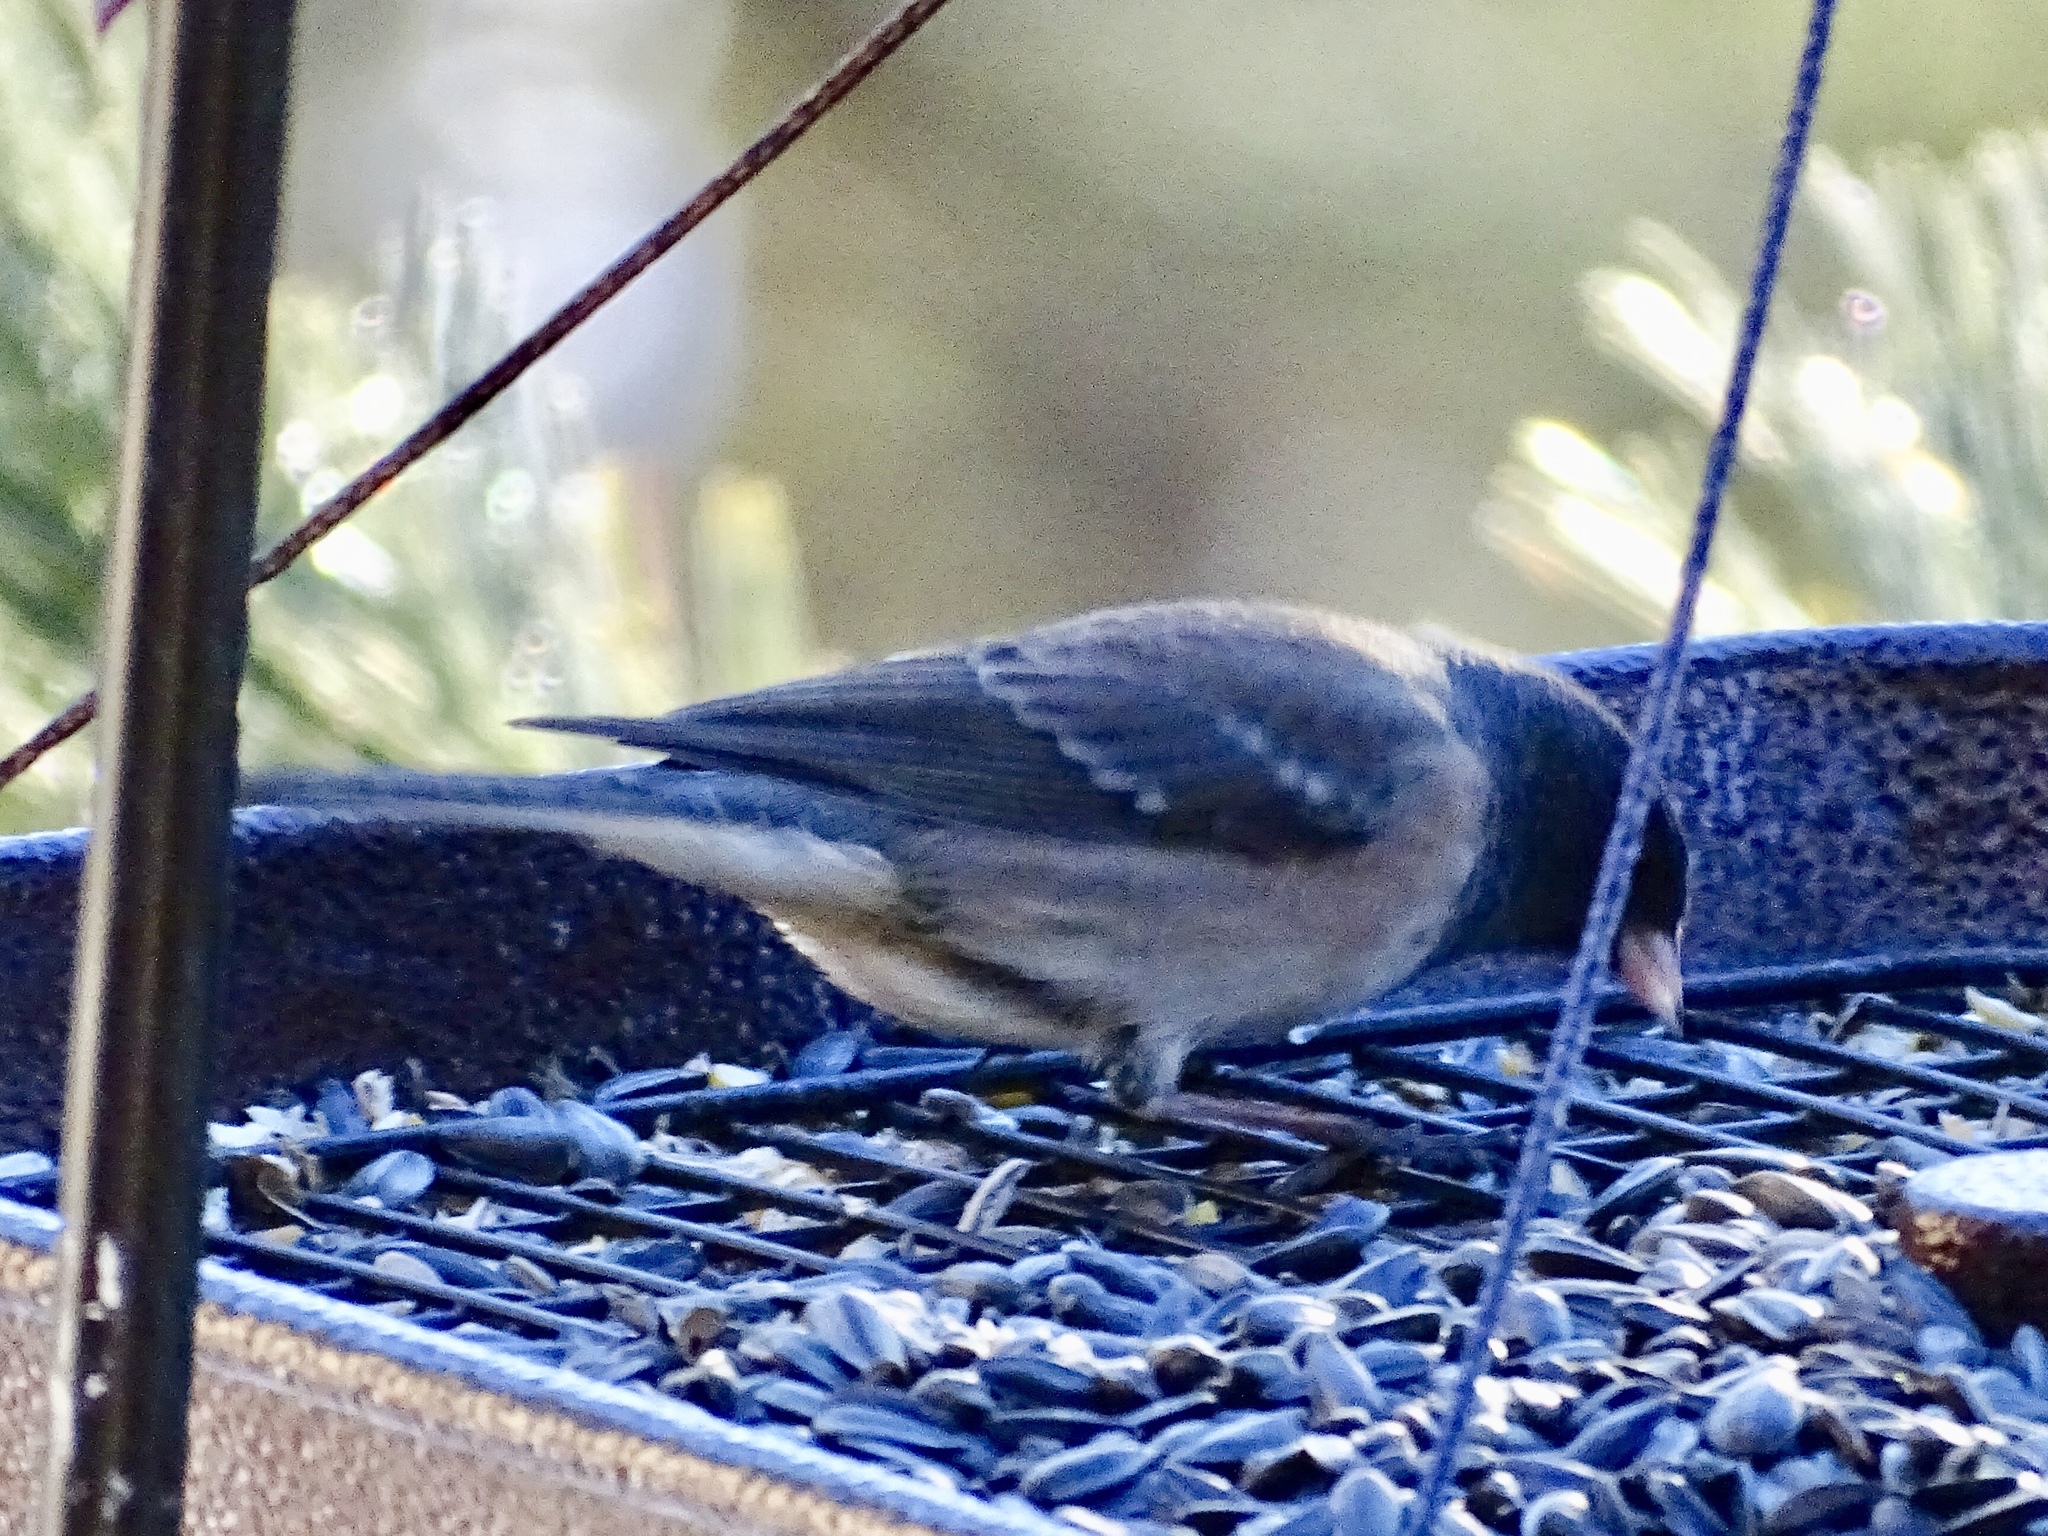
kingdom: Animalia
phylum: Chordata
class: Aves
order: Passeriformes
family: Passerellidae
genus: Junco
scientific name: Junco hyemalis
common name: Dark-eyed junco
